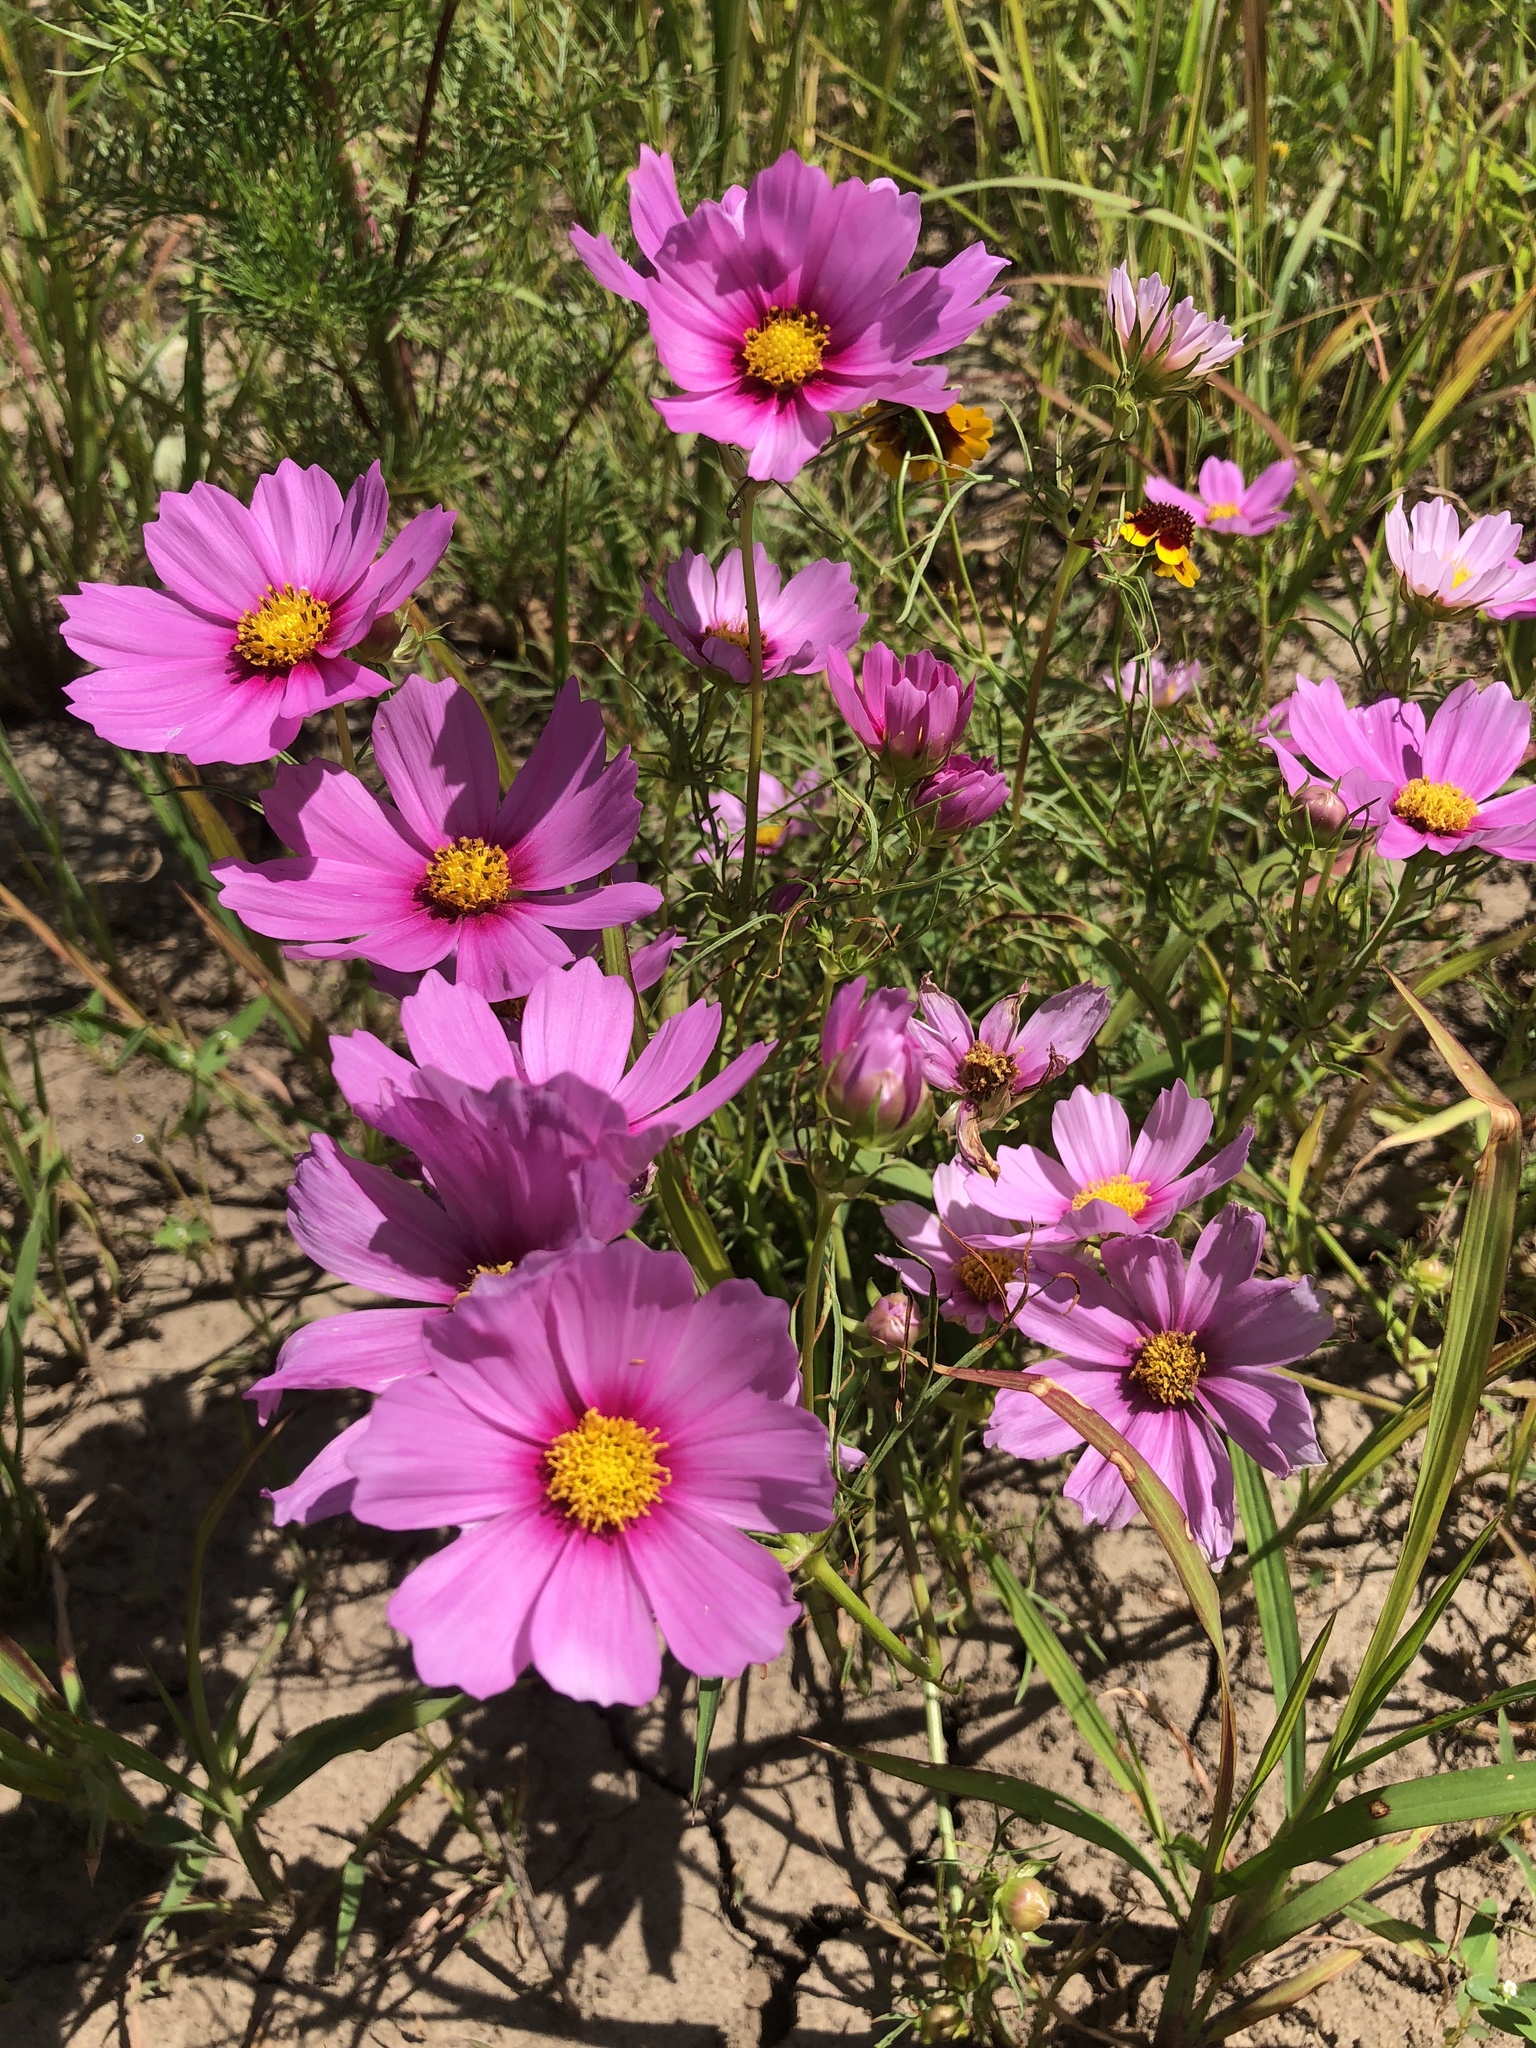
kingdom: Plantae
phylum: Tracheophyta
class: Magnoliopsida
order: Asterales
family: Asteraceae
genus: Cosmos
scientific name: Cosmos bipinnatus
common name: Garden cosmos
